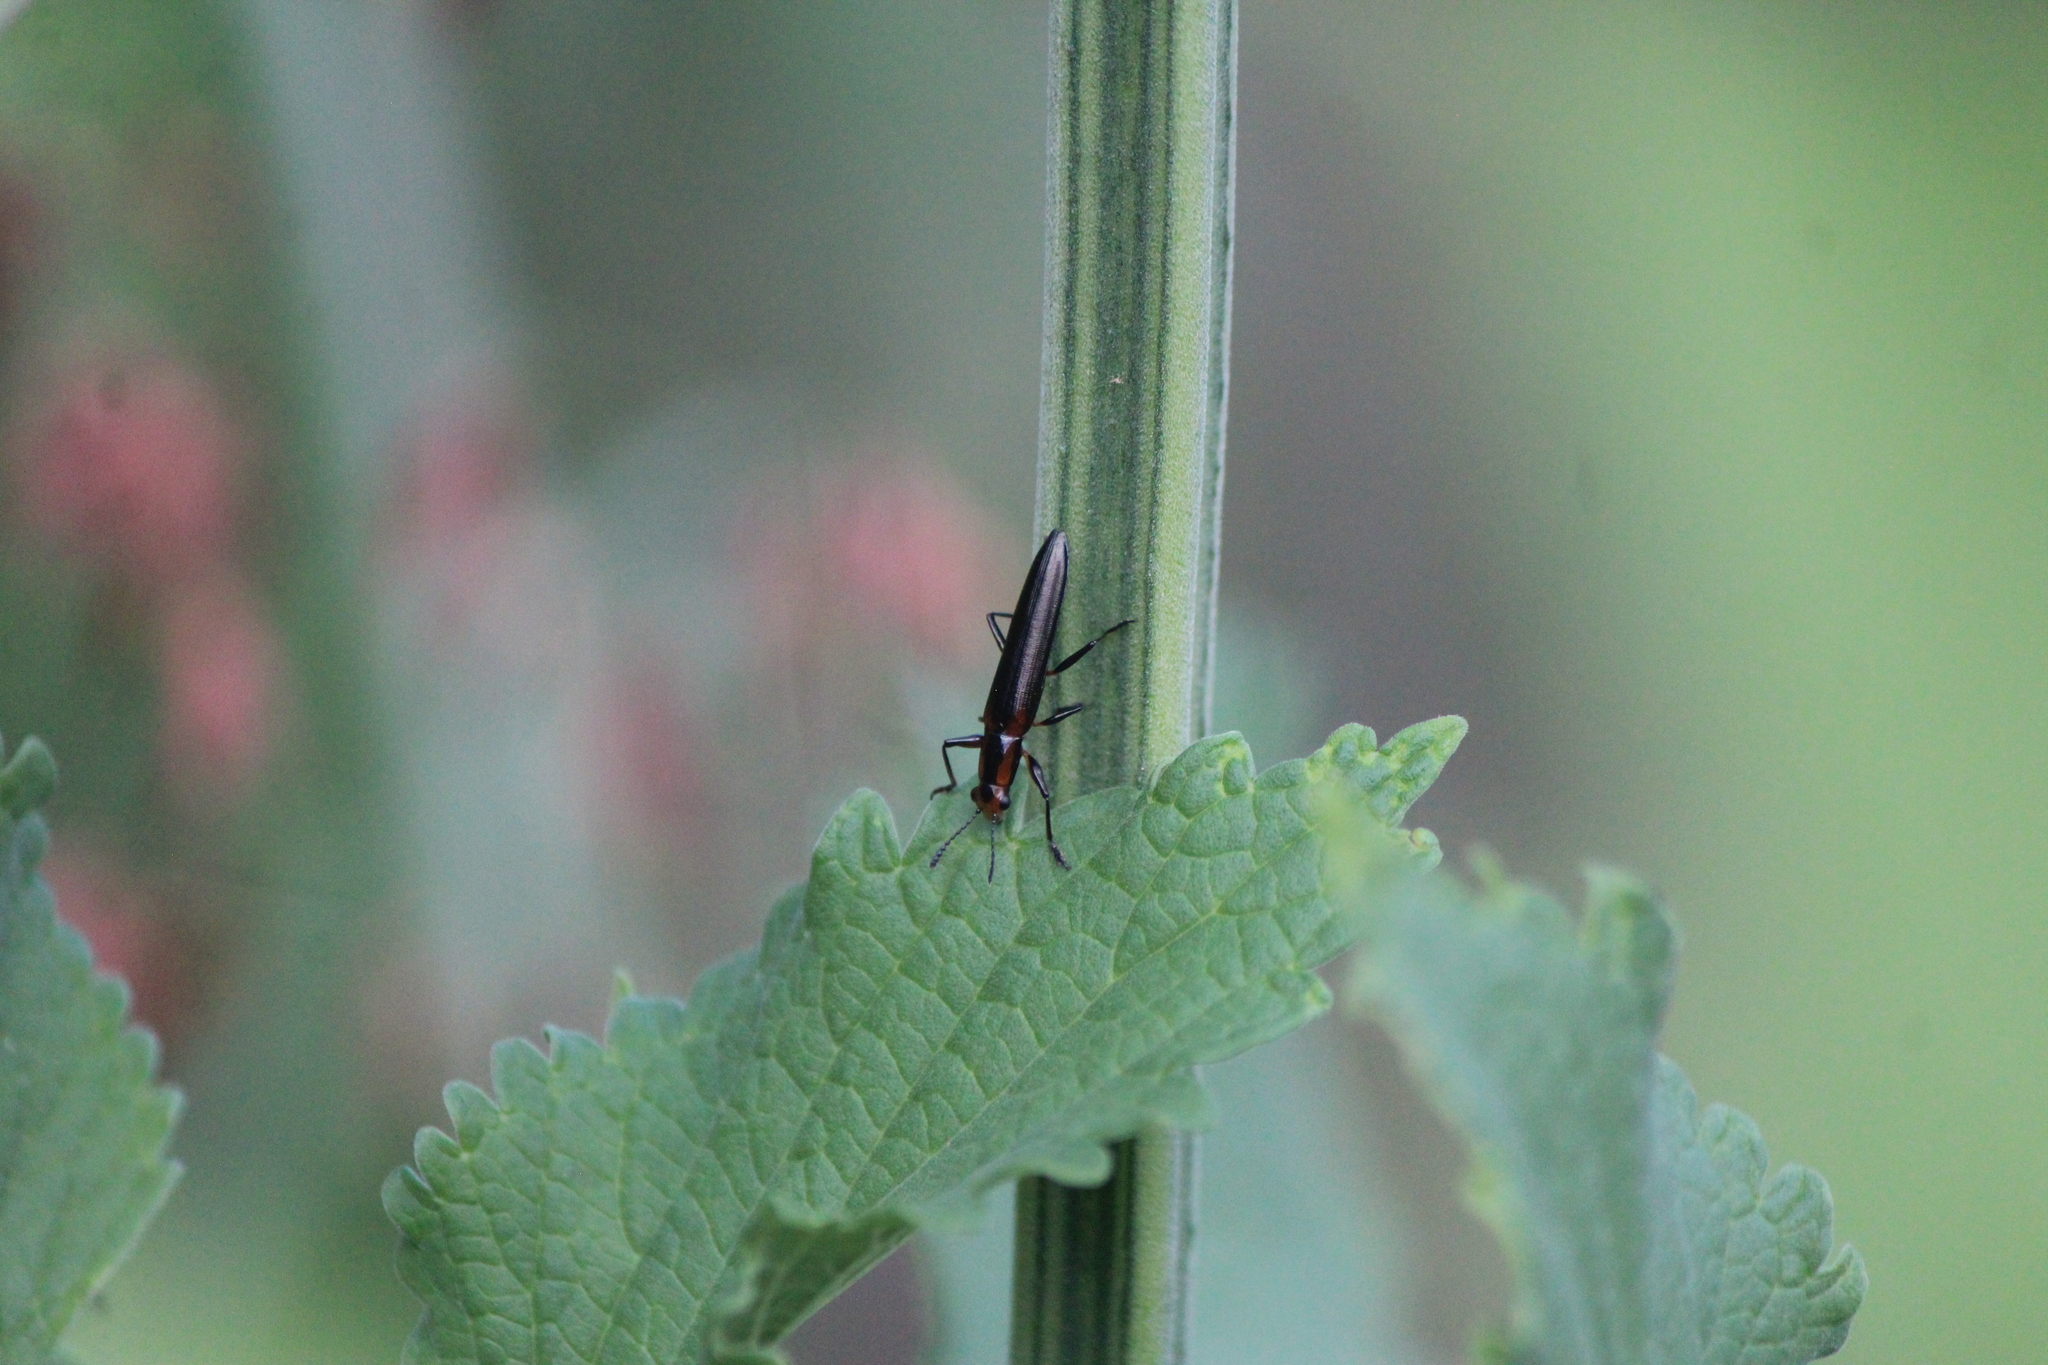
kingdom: Animalia
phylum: Arthropoda
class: Insecta
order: Coleoptera
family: Erotylidae
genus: Langurites
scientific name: Langurites lineatus
